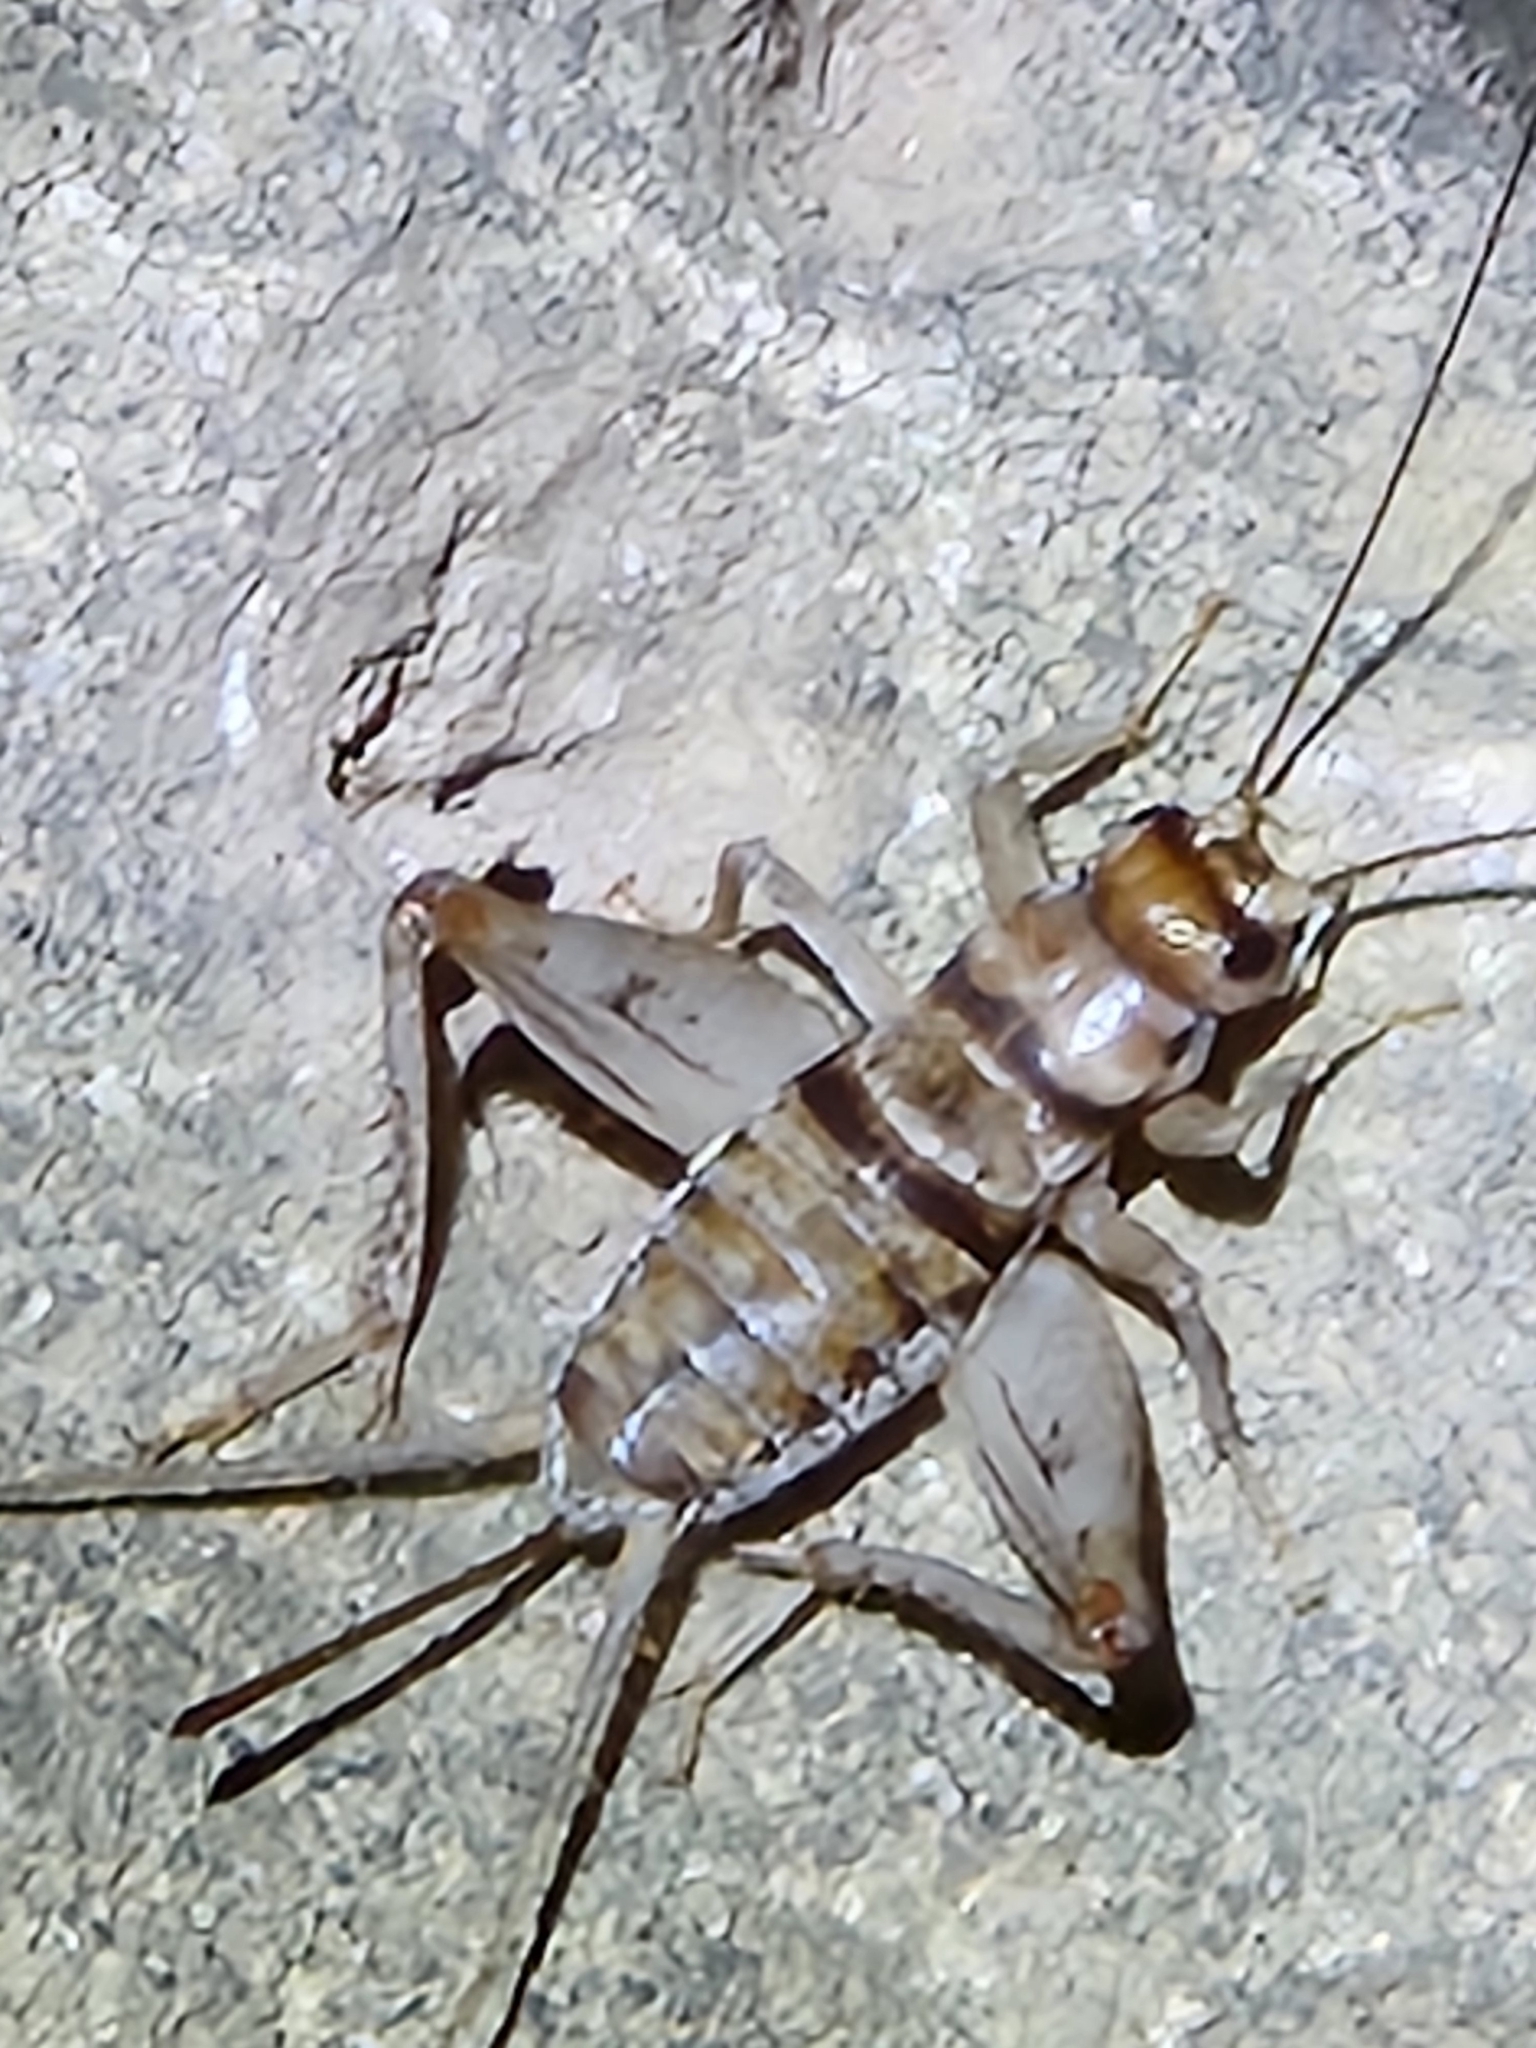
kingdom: Animalia
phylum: Arthropoda
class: Insecta
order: Orthoptera
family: Gryllidae
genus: Gryllodes
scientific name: Gryllodes sigillatus
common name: Tropical house cricket
